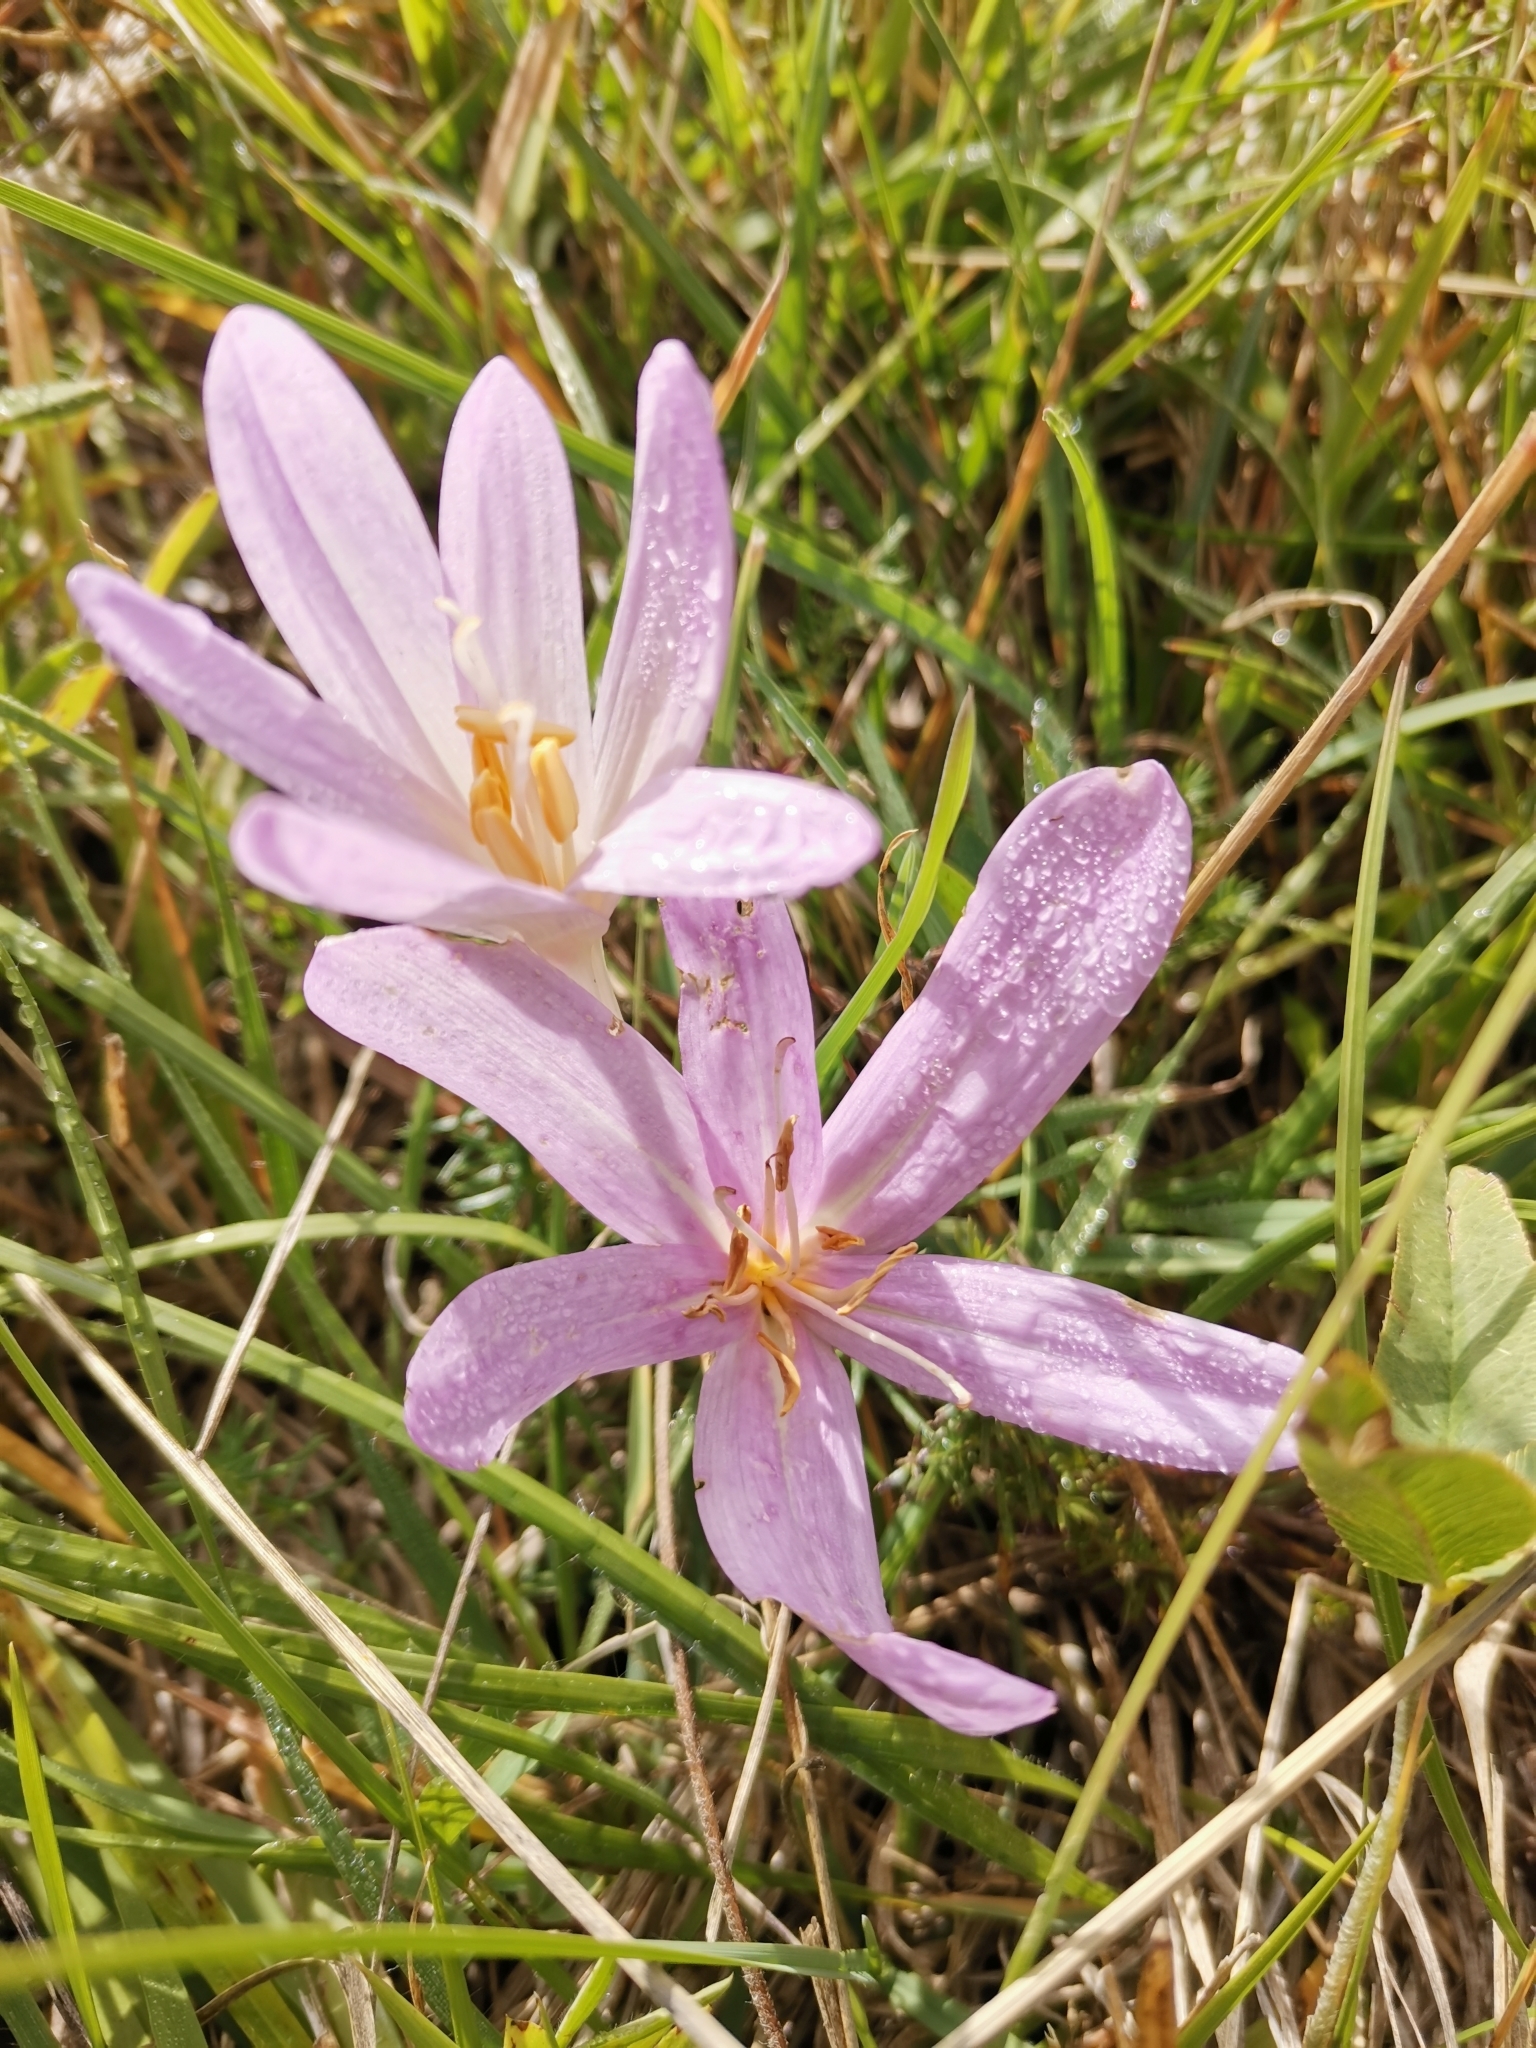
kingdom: Plantae
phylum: Tracheophyta
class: Liliopsida
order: Liliales
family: Colchicaceae
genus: Colchicum
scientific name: Colchicum autumnale
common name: Autumn crocus
